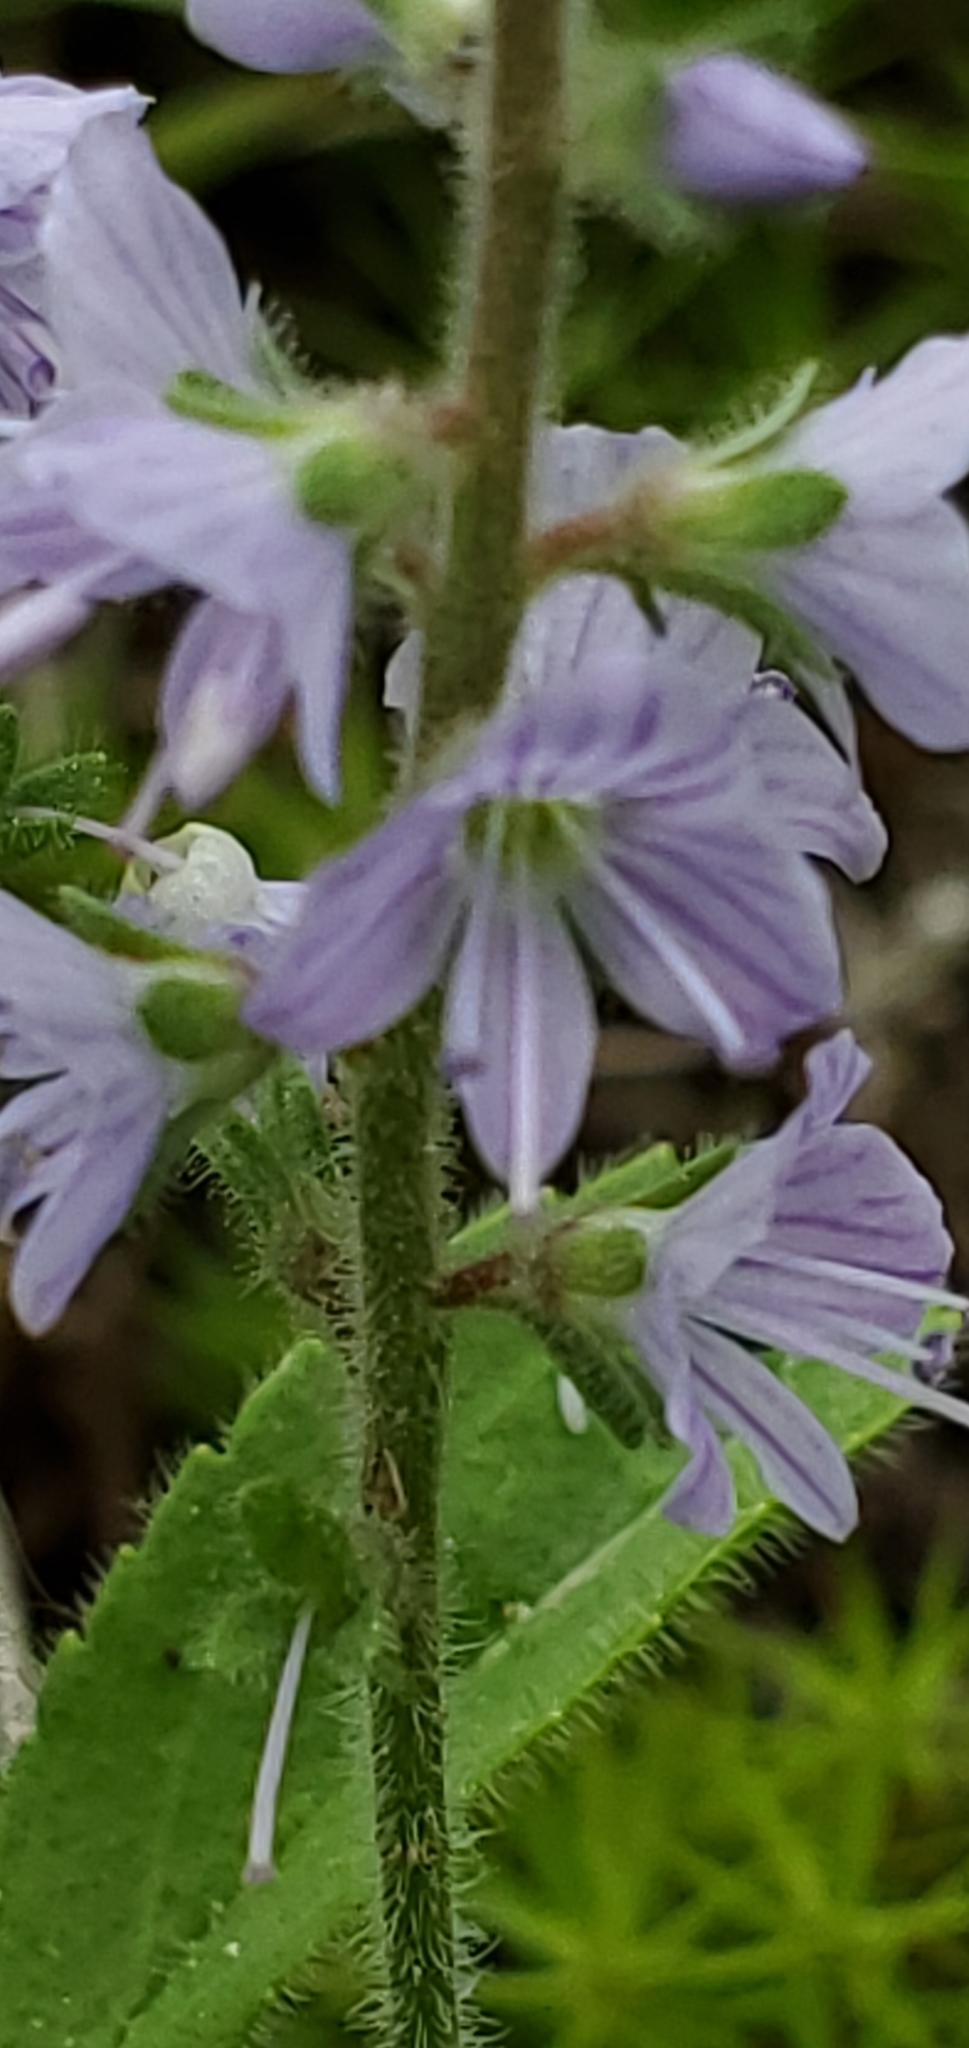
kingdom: Plantae
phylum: Tracheophyta
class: Magnoliopsida
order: Lamiales
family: Plantaginaceae
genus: Veronica
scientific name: Veronica officinalis
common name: Common speedwell
